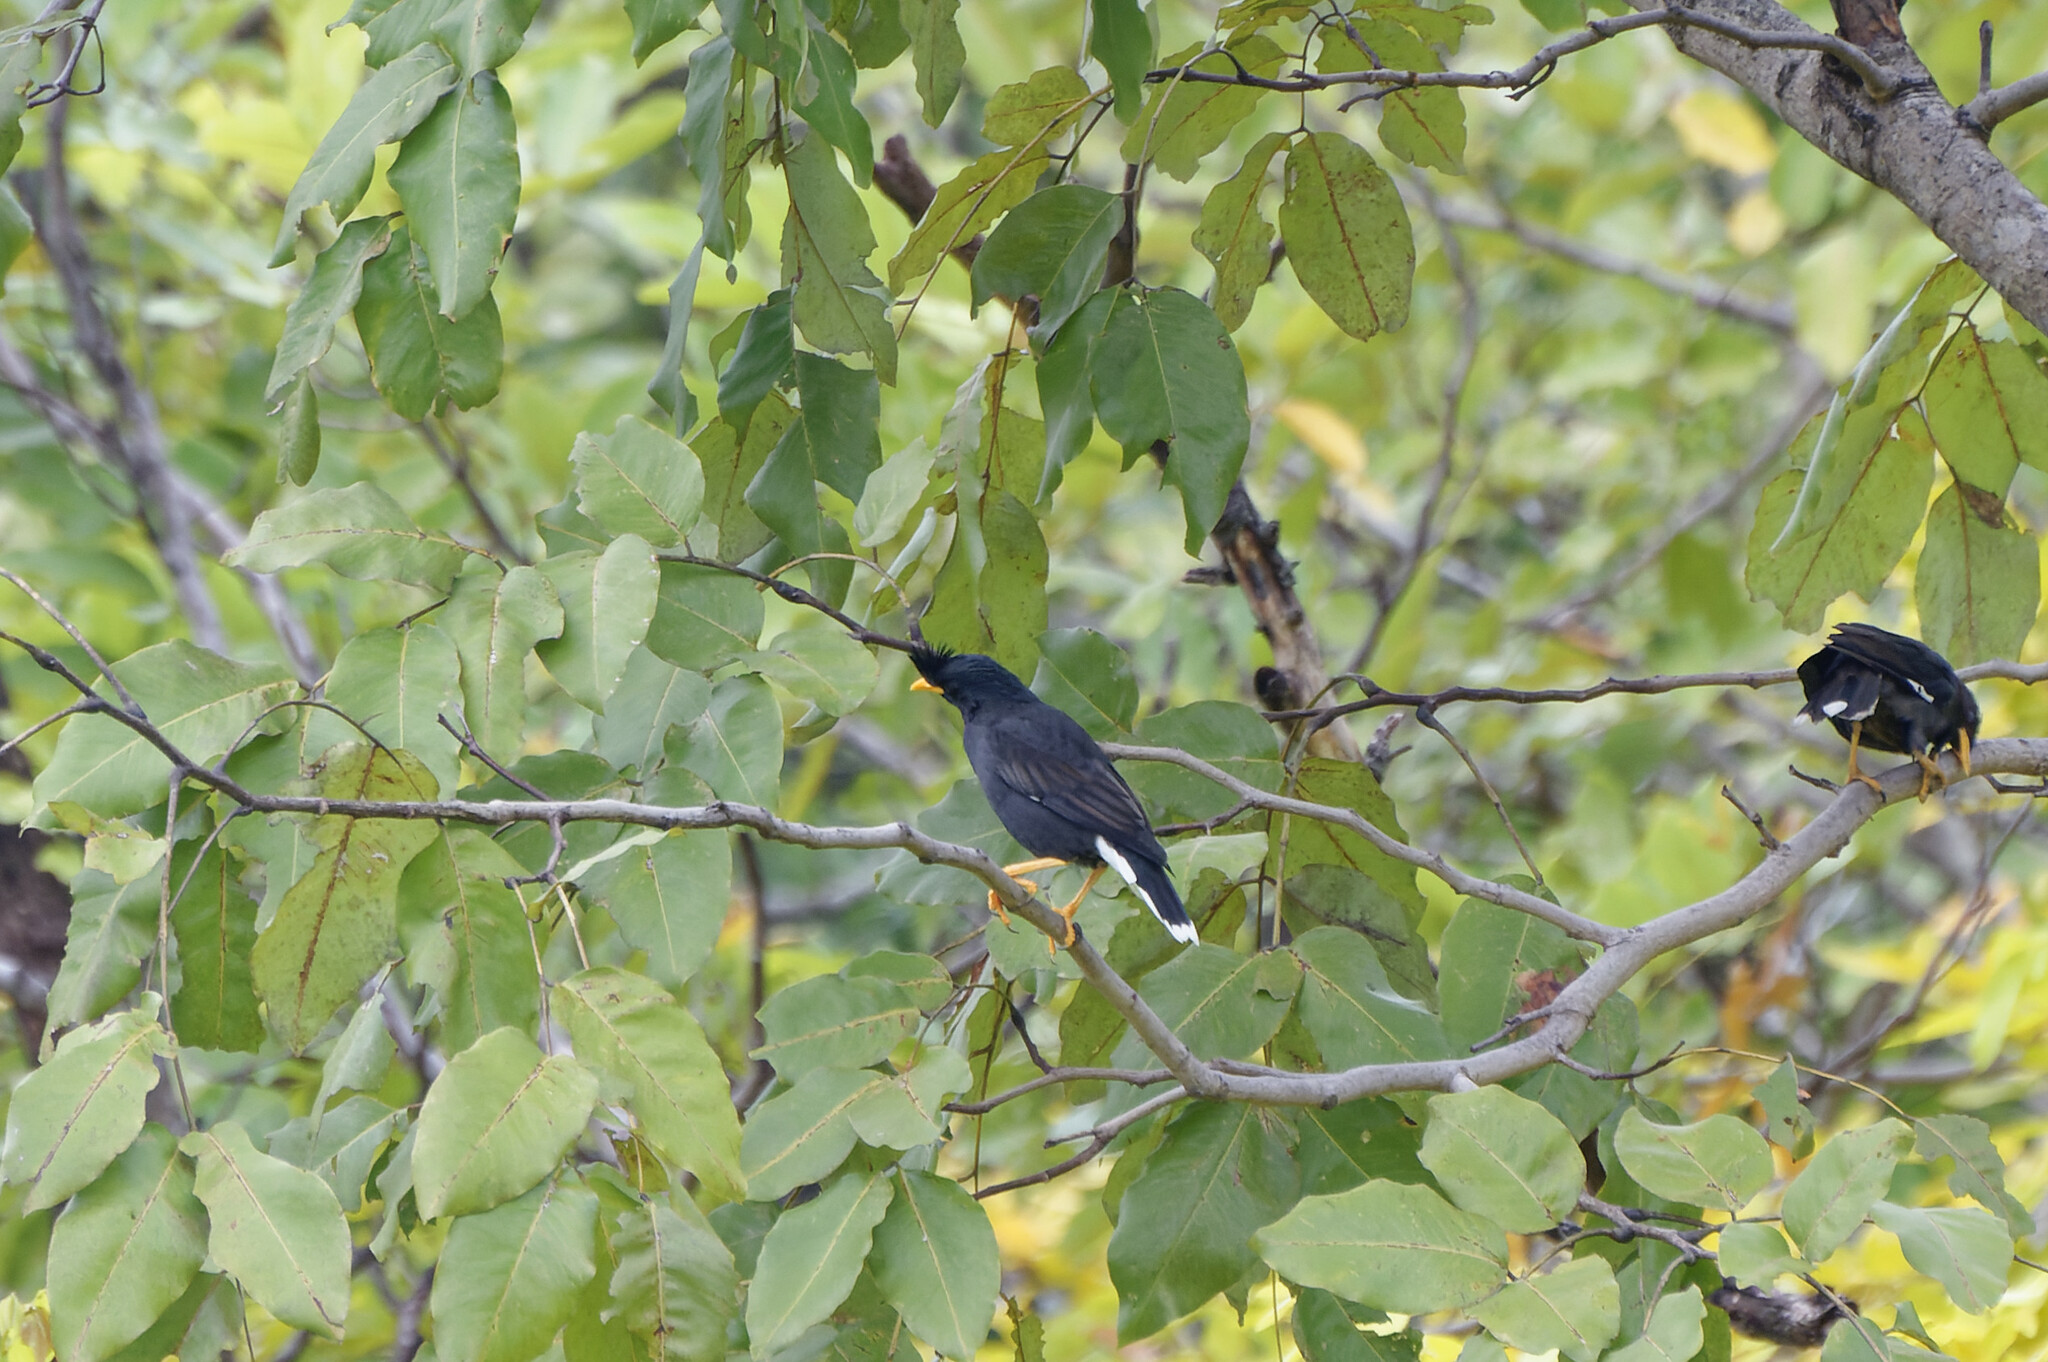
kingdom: Animalia
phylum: Chordata
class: Aves
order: Passeriformes
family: Sturnidae
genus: Acridotheres
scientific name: Acridotheres grandis
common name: Great myna
